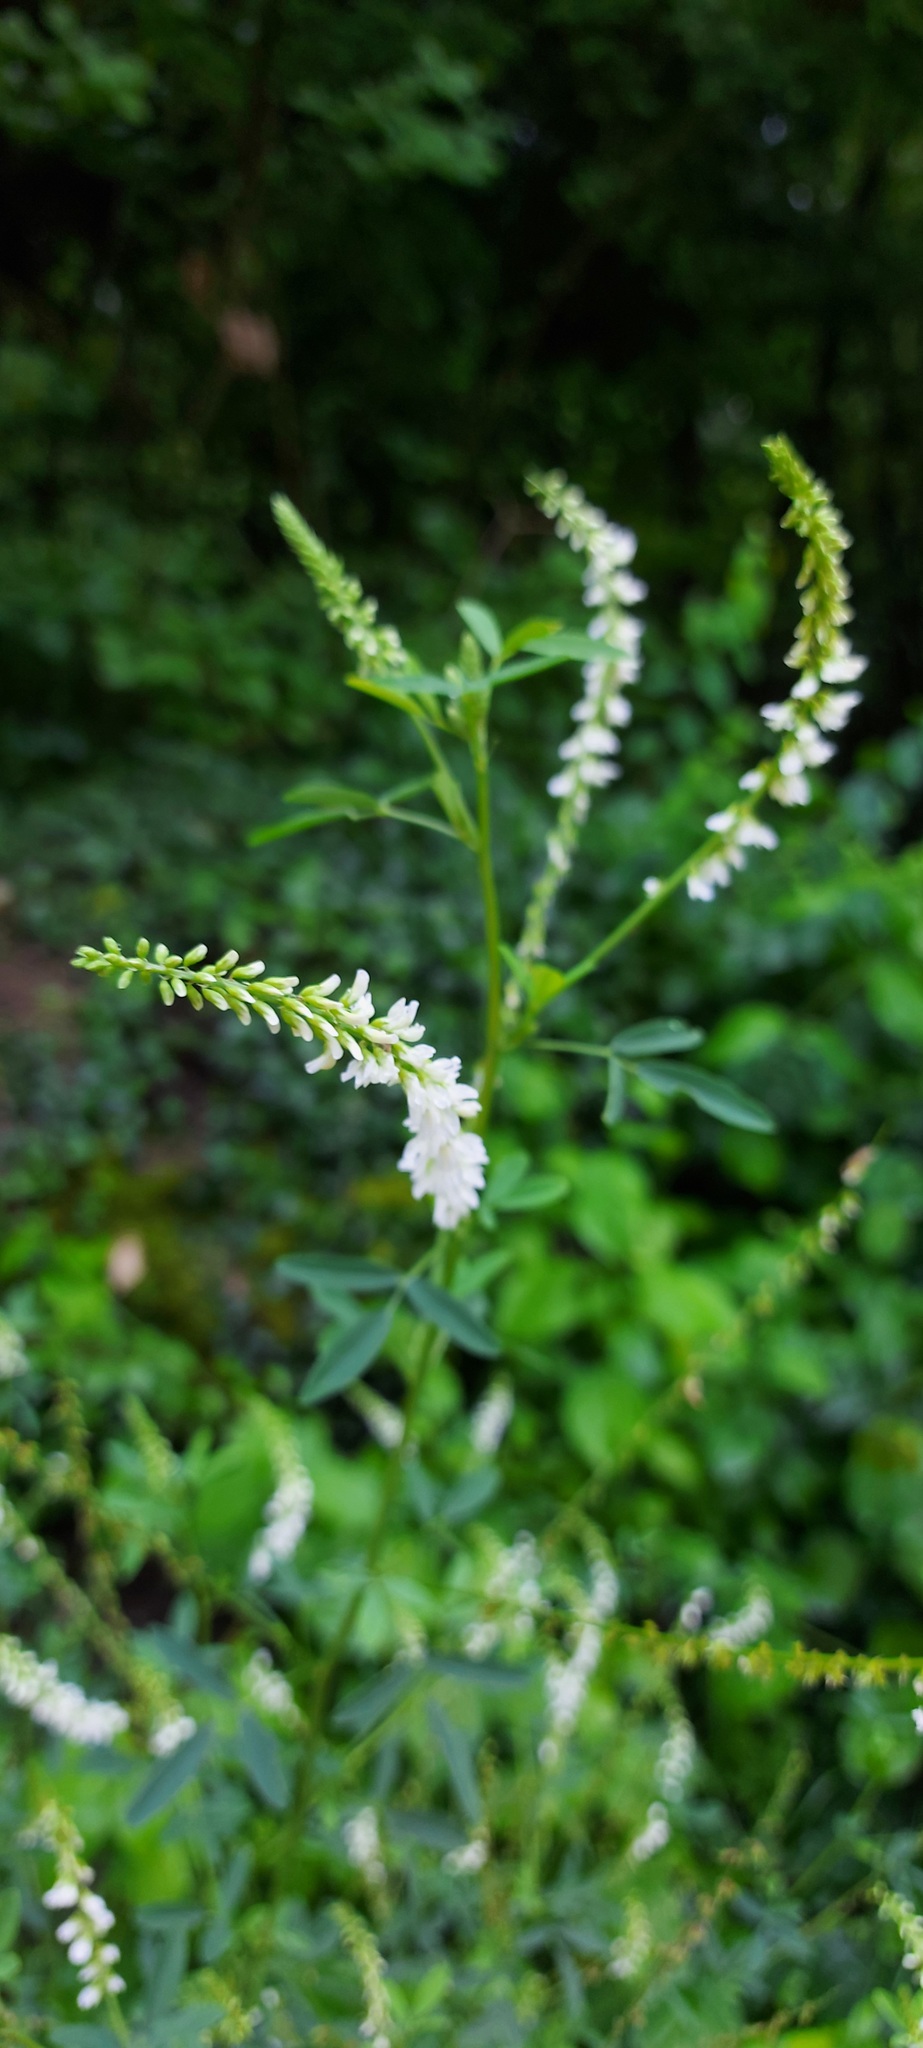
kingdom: Plantae
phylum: Tracheophyta
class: Magnoliopsida
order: Fabales
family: Fabaceae
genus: Melilotus
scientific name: Melilotus albus
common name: White melilot
